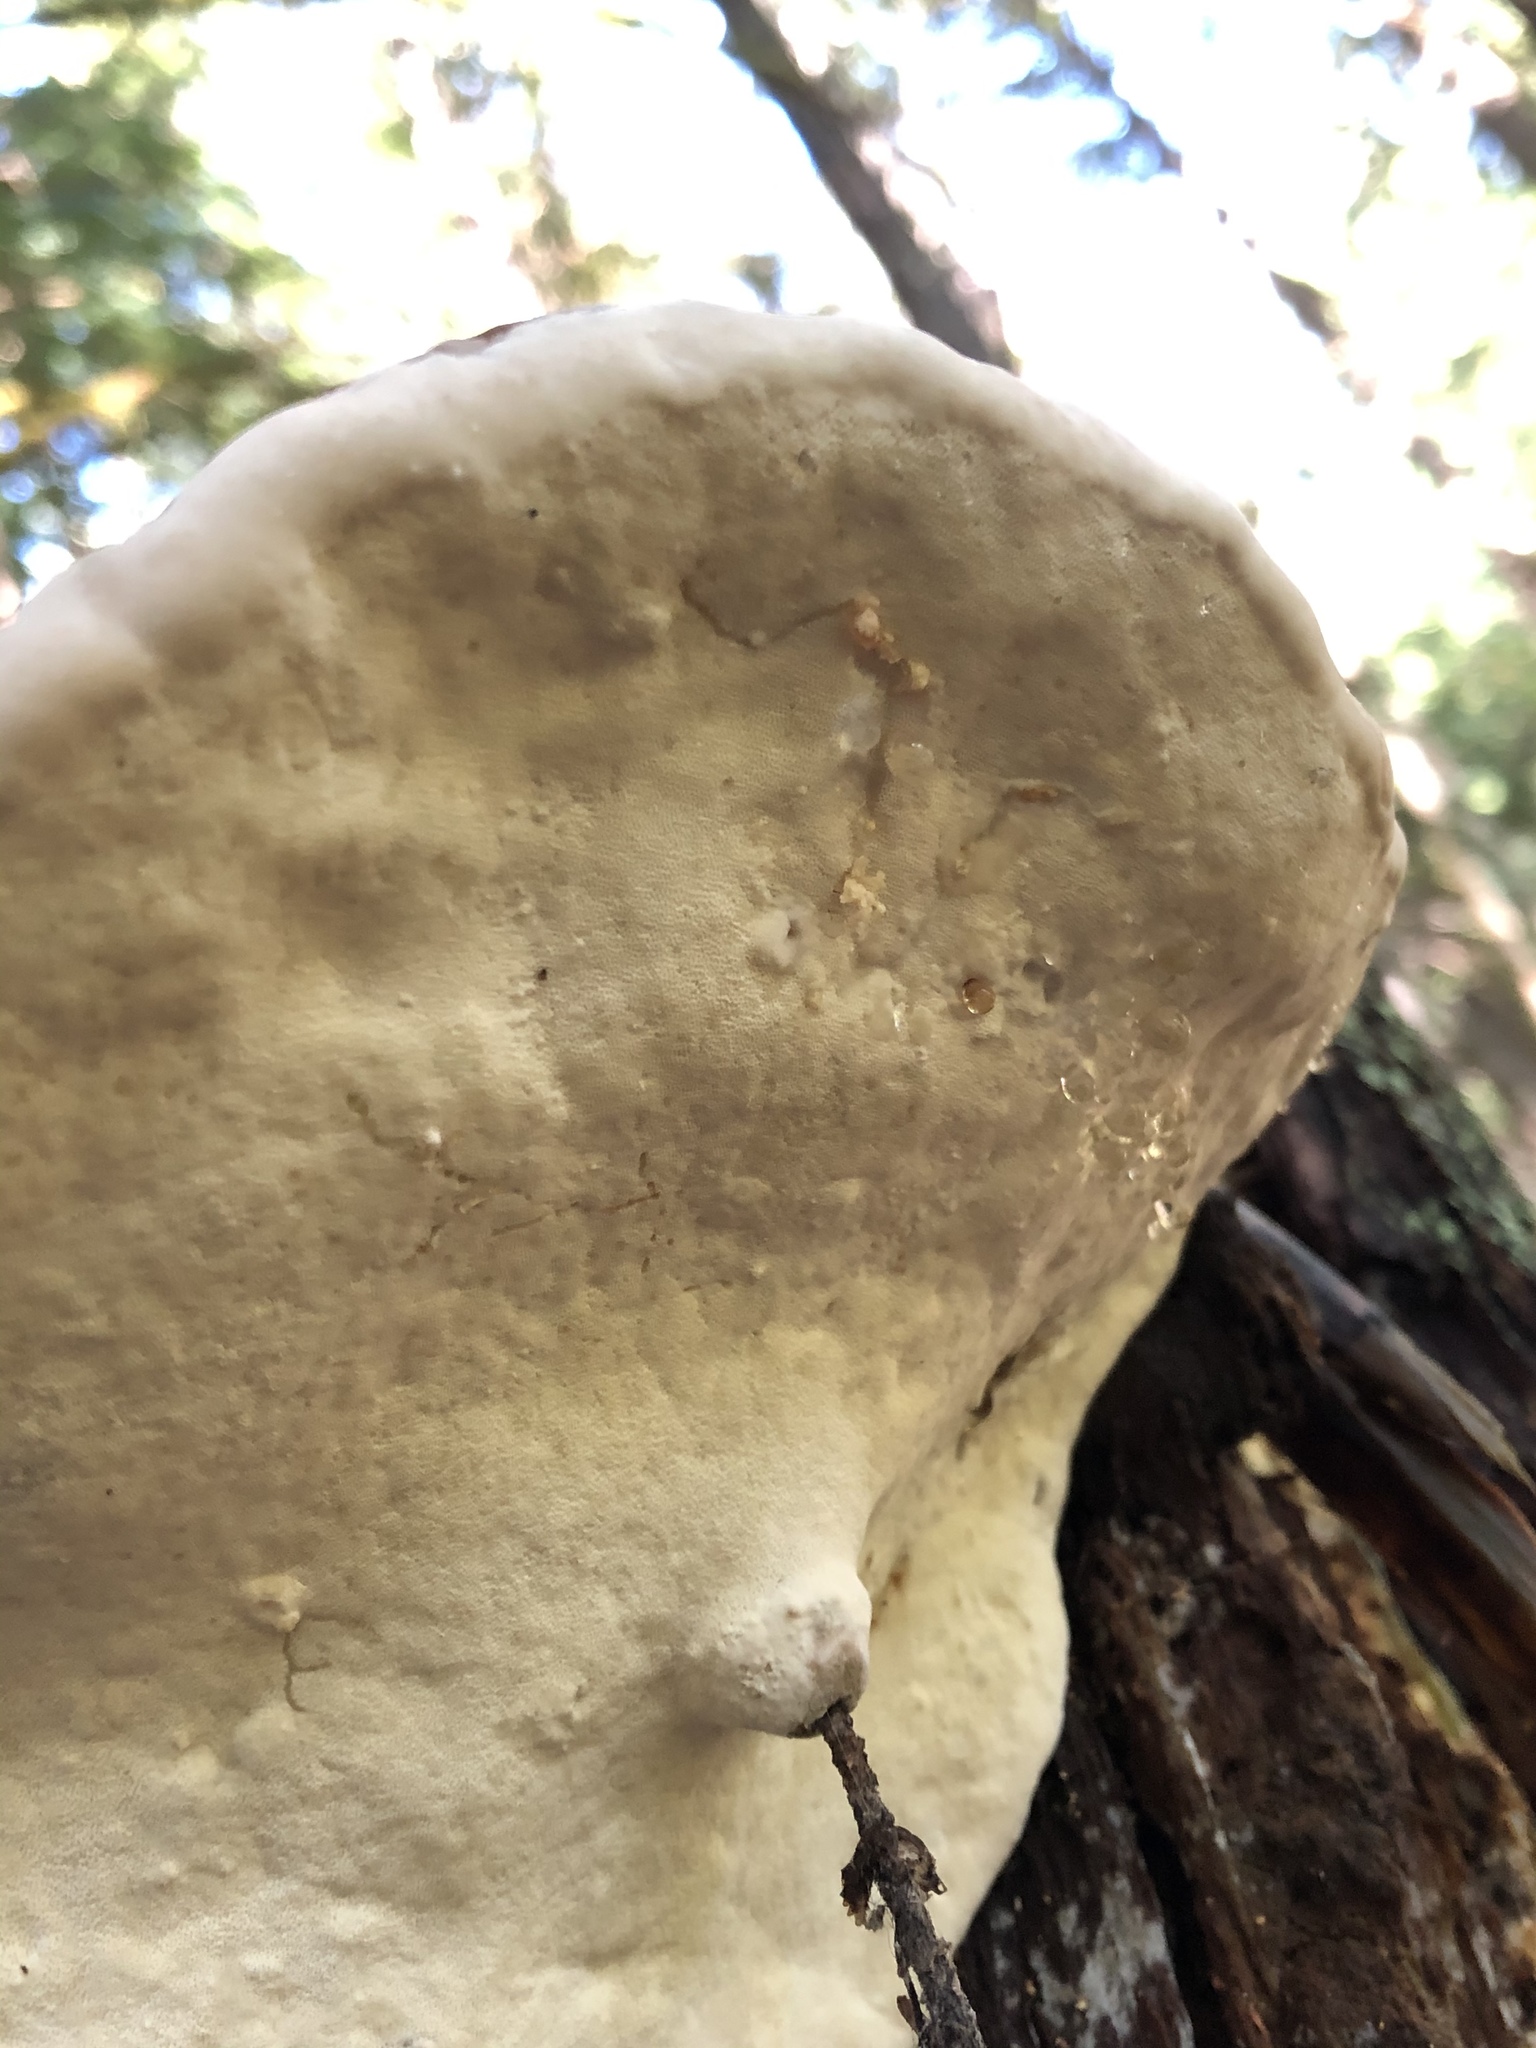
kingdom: Fungi
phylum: Basidiomycota
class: Agaricomycetes
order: Polyporales
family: Fomitopsidaceae
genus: Fomitopsis
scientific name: Fomitopsis mounceae
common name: Northern red belt
